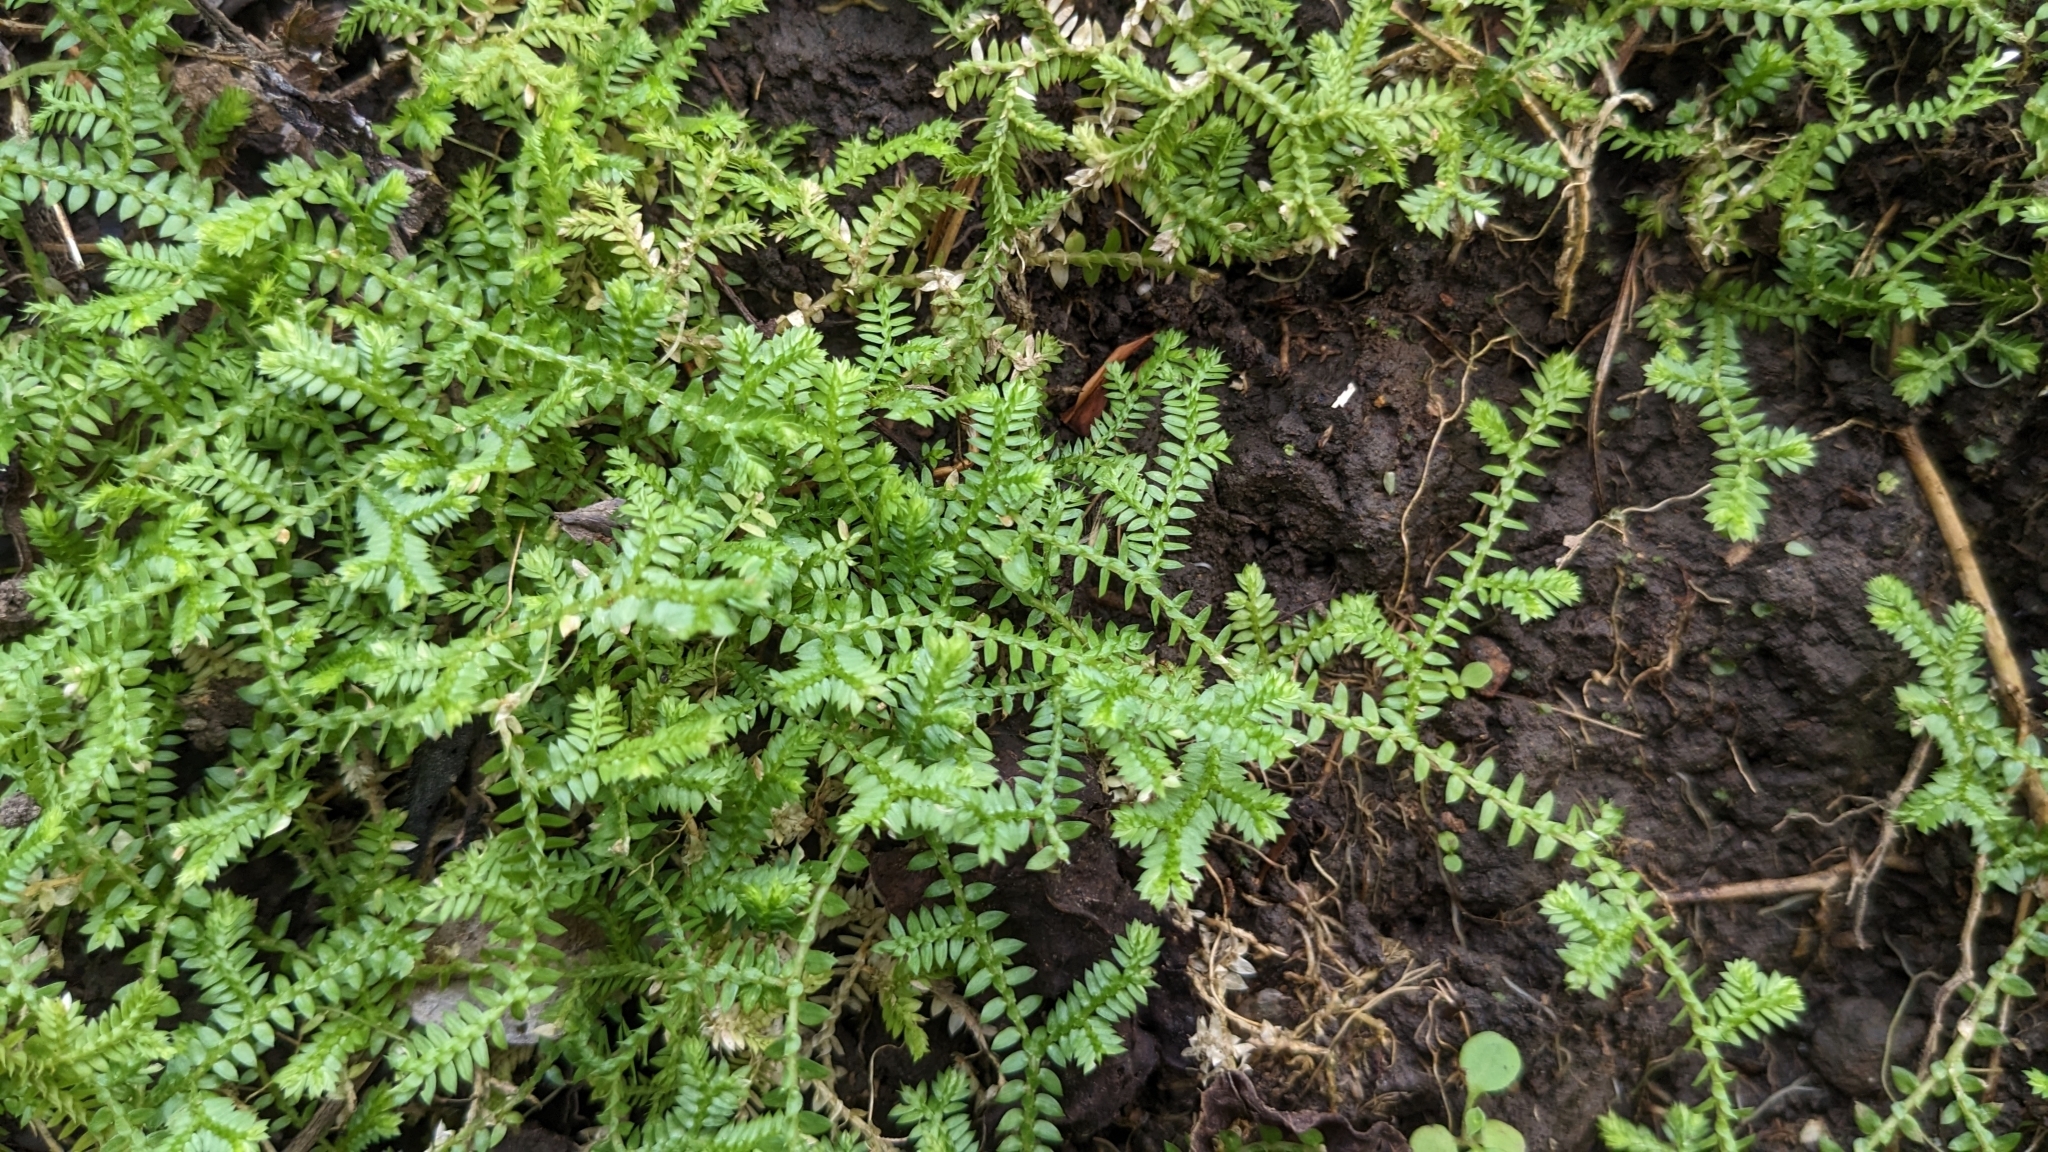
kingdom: Plantae
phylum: Tracheophyta
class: Lycopodiopsida
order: Selaginellales
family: Selaginellaceae
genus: Selaginella
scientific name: Selaginella remotifolia
